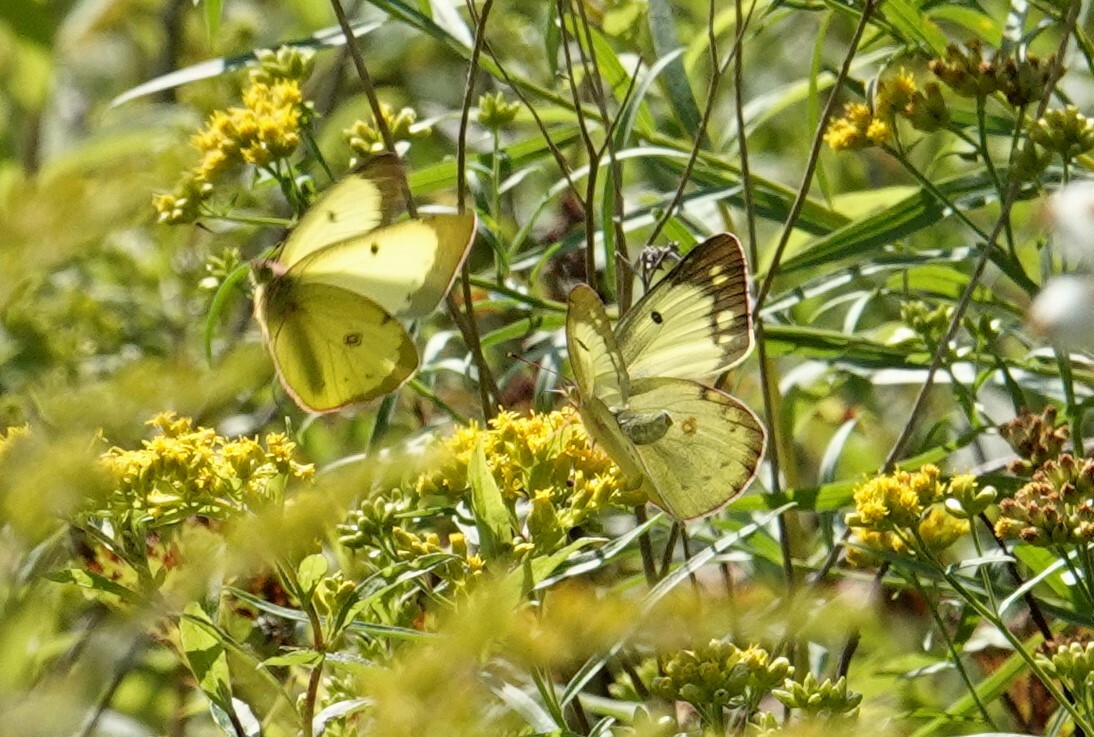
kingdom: Animalia
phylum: Arthropoda
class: Insecta
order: Lepidoptera
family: Pieridae
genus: Colias
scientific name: Colias philodice
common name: Clouded sulphur
